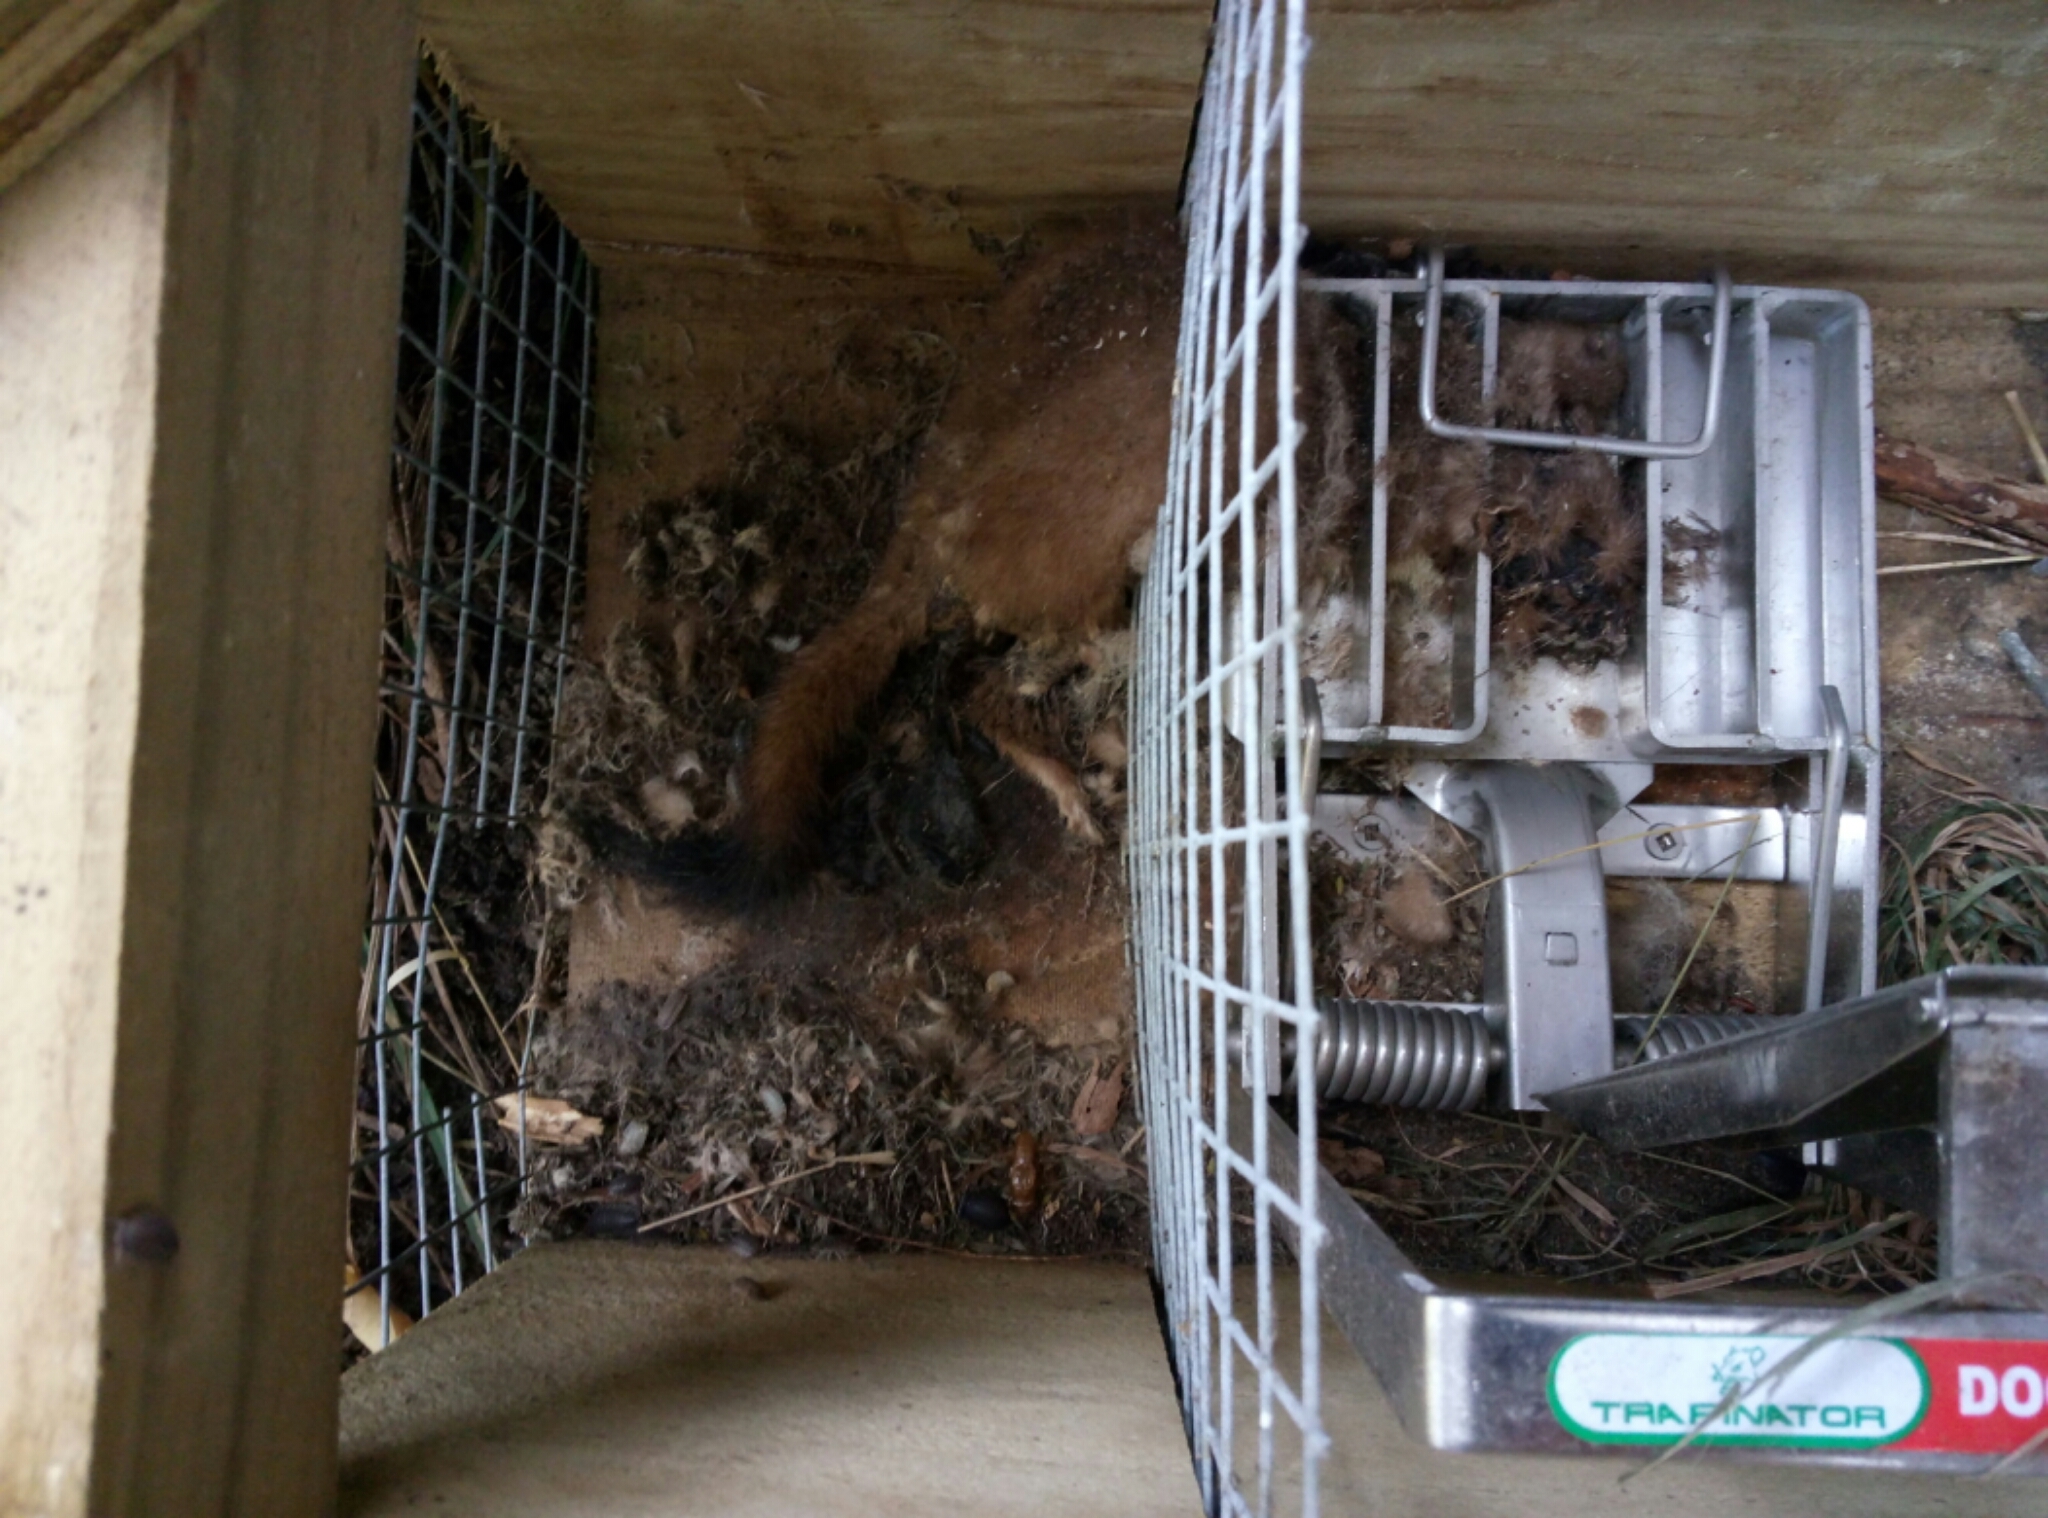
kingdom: Animalia
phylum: Chordata
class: Mammalia
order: Carnivora
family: Mustelidae
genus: Mustela
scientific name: Mustela erminea
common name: Stoat
